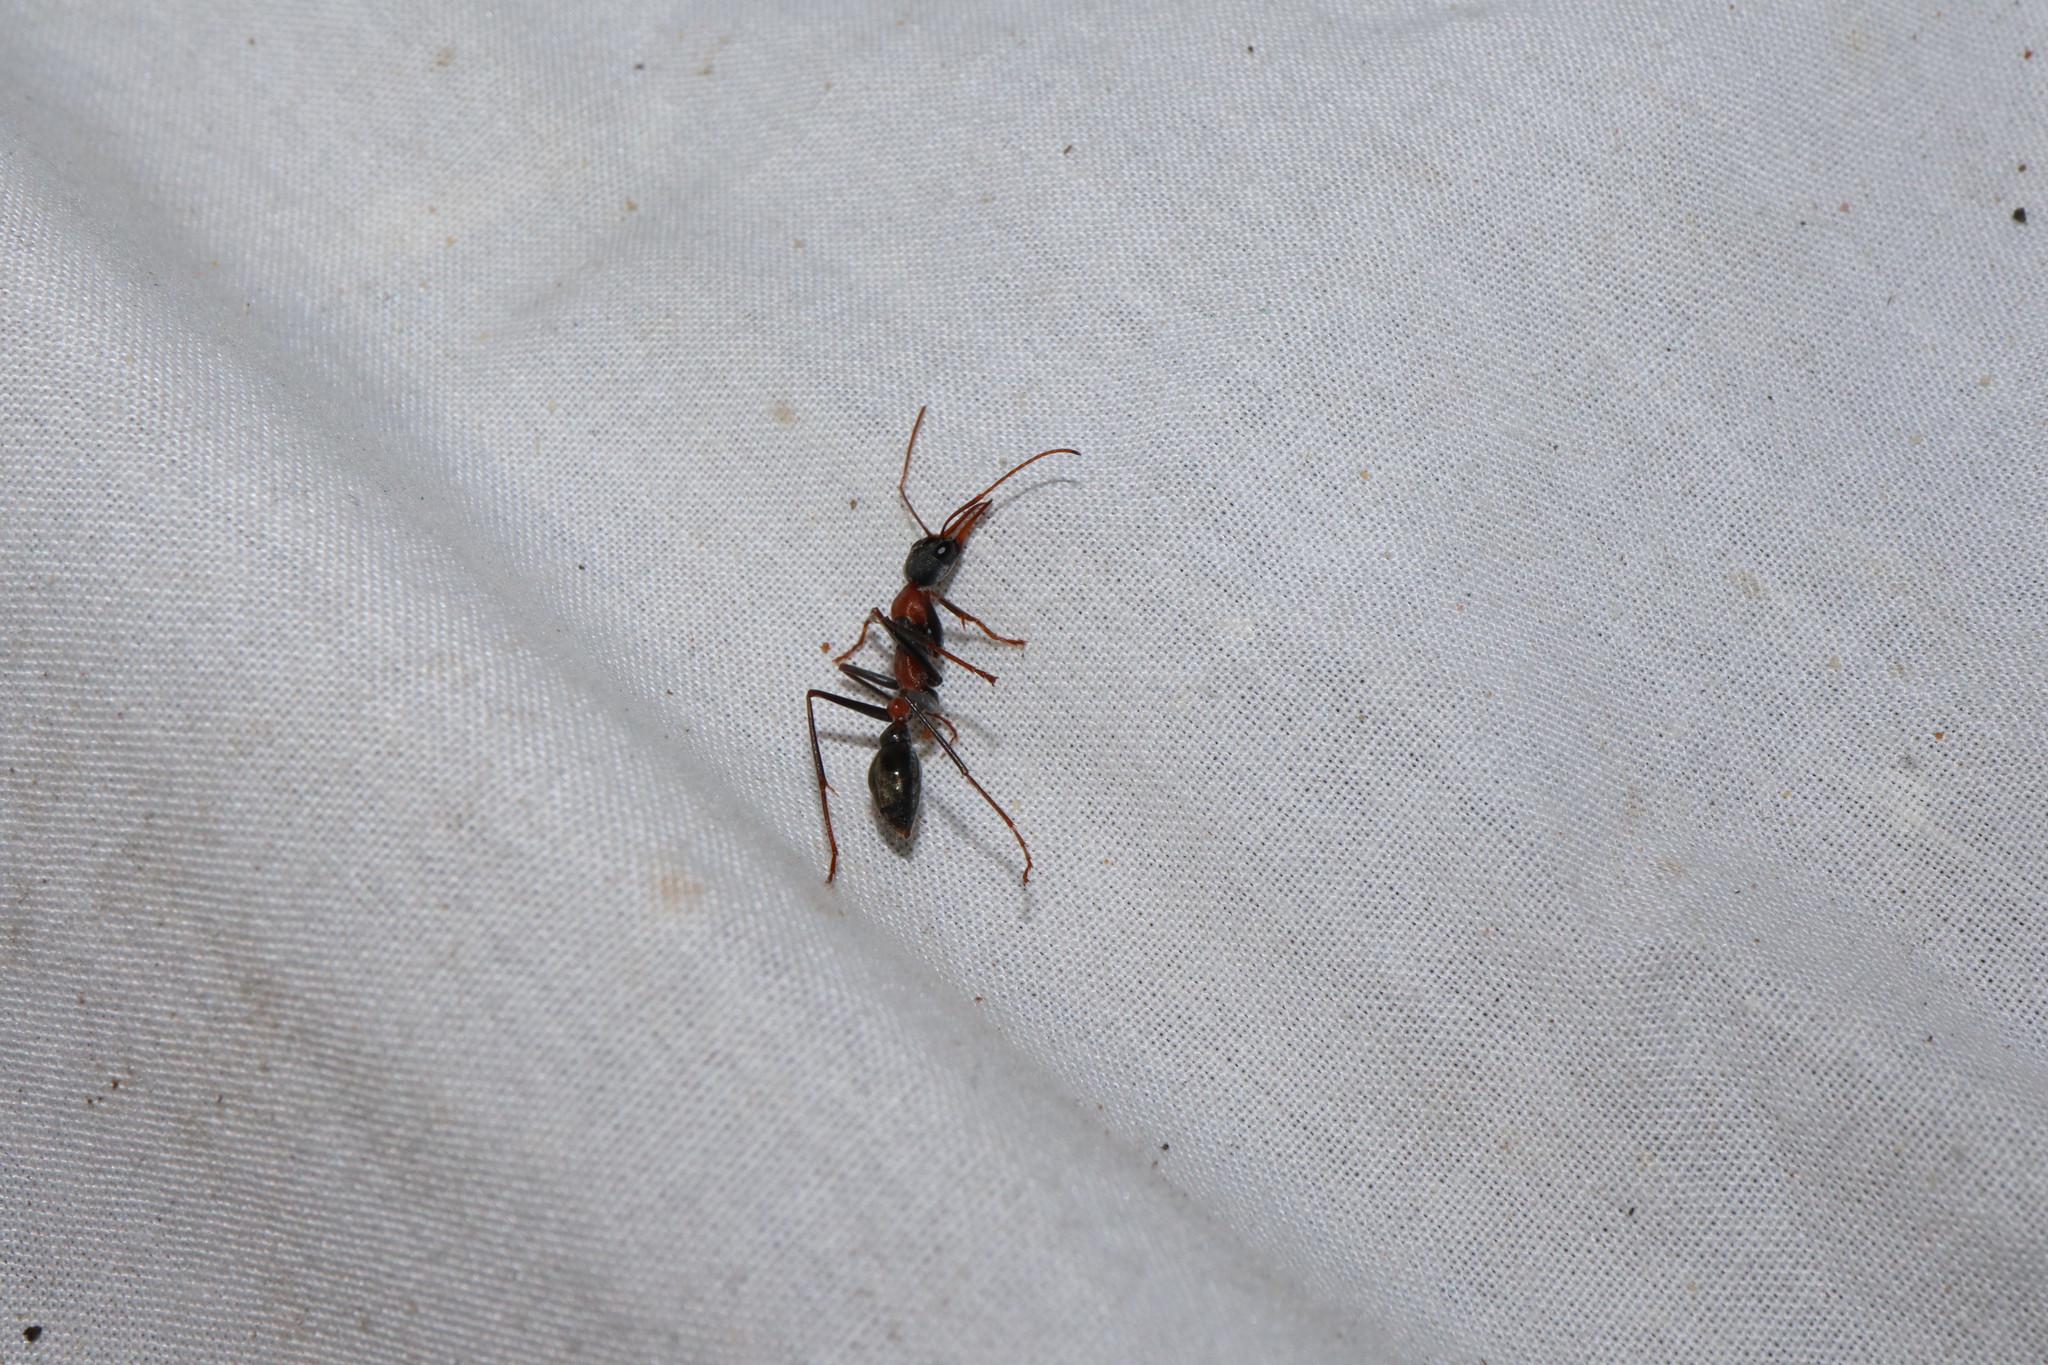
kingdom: Animalia
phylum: Arthropoda
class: Insecta
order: Hymenoptera
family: Formicidae
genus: Myrmecia
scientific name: Myrmecia nigrocincta
